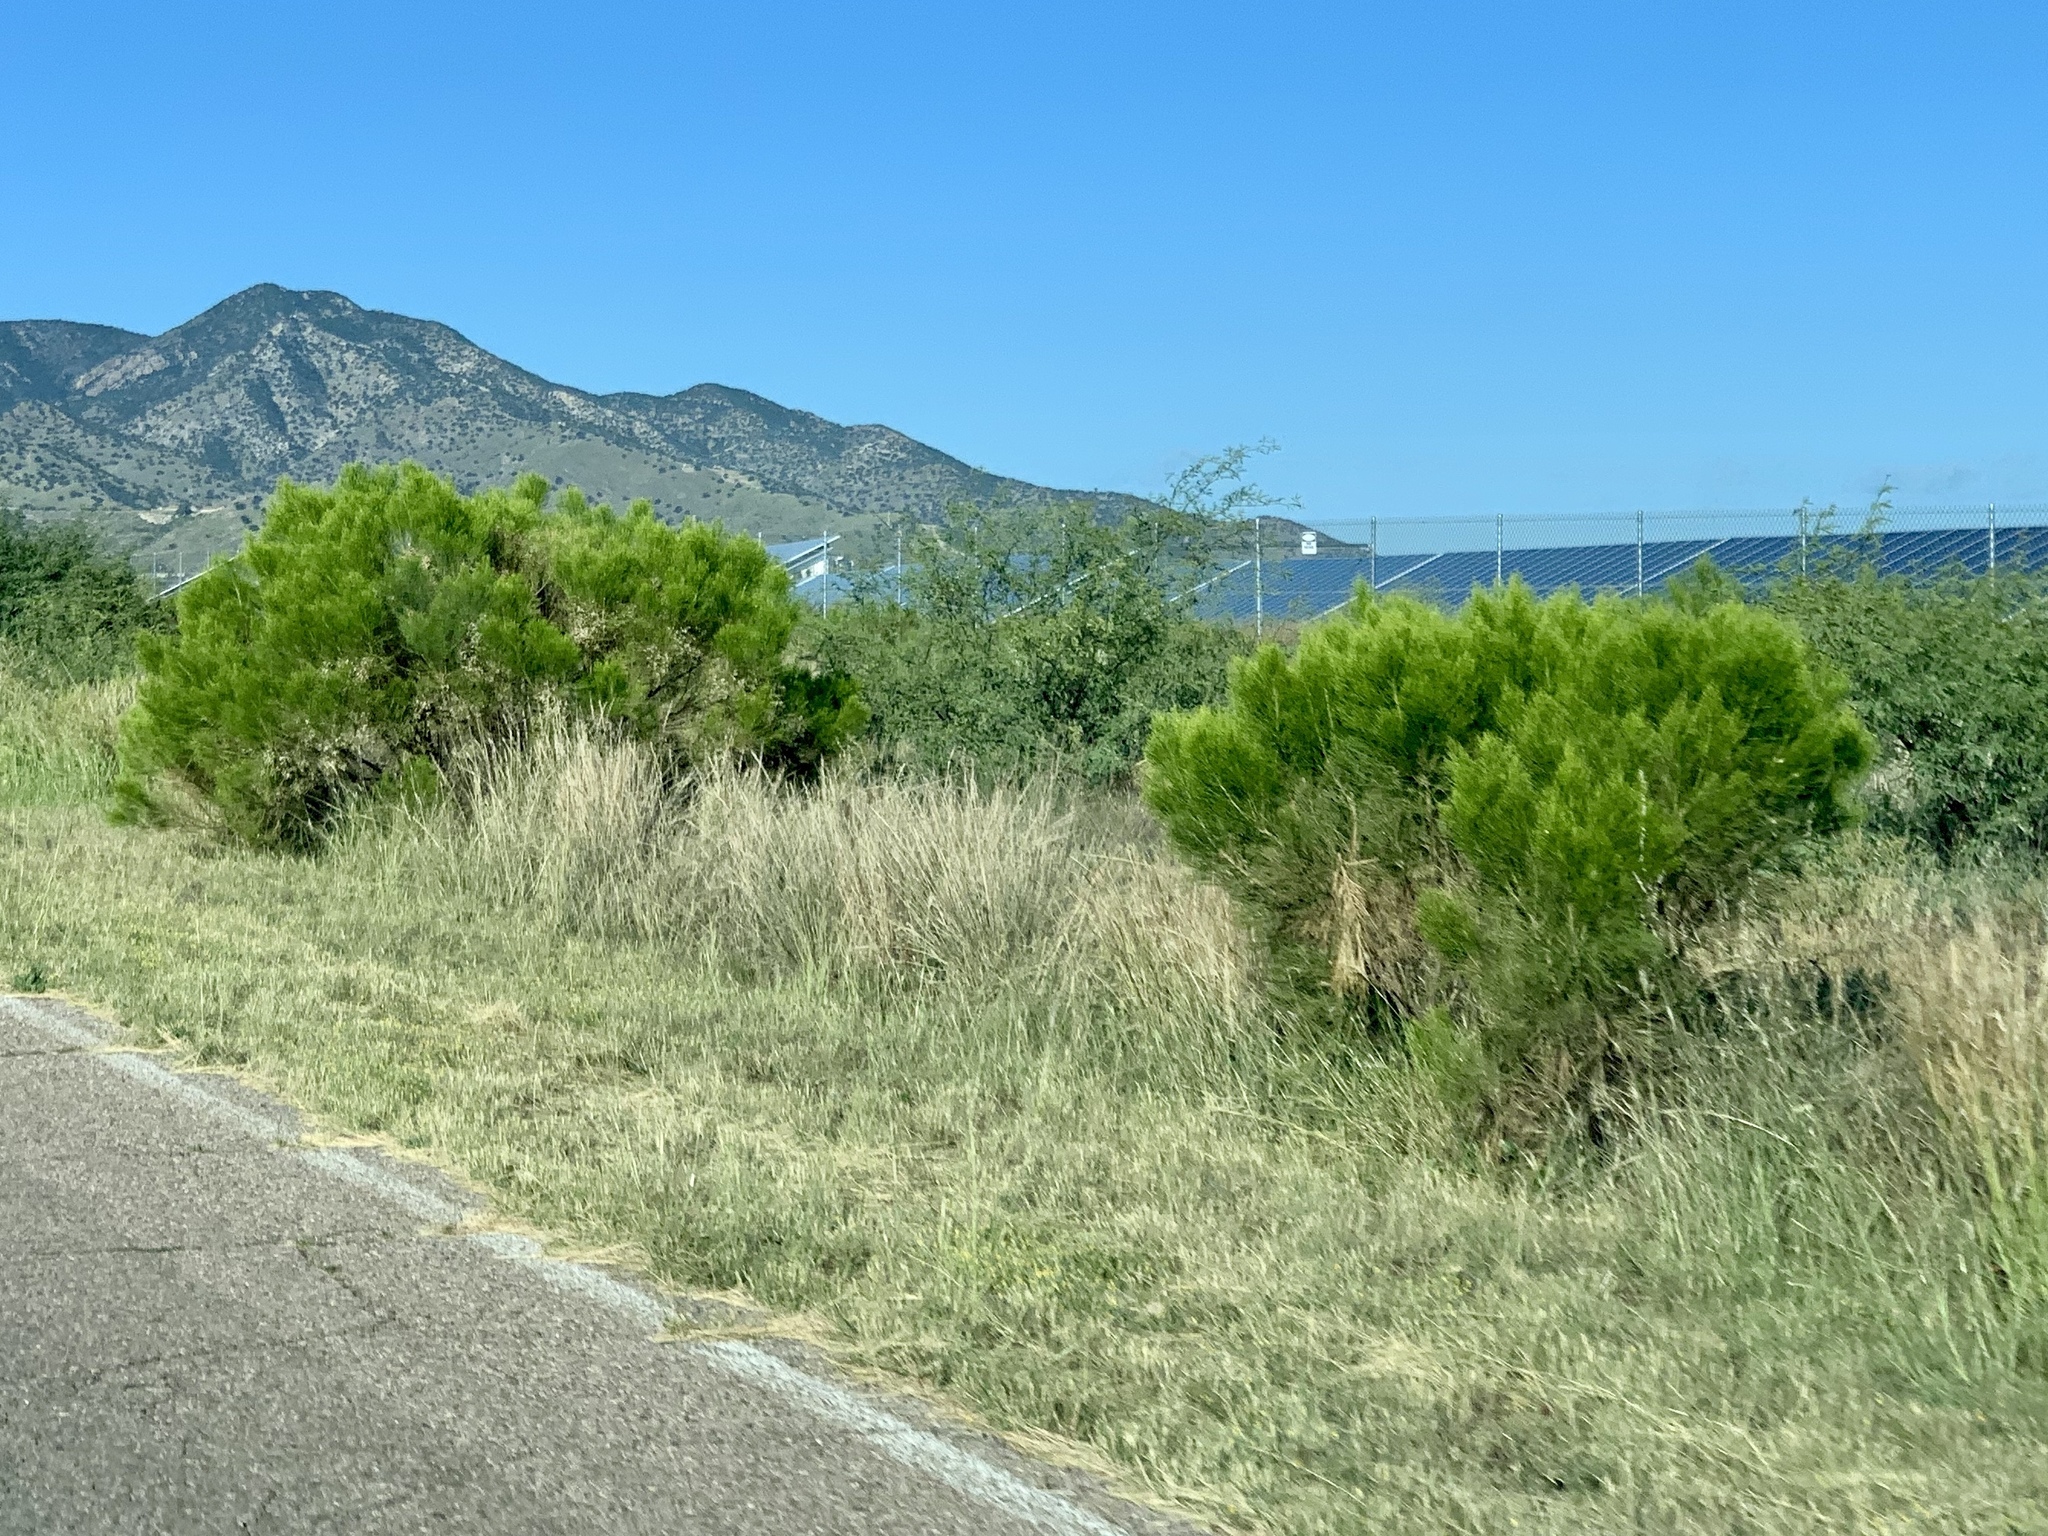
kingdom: Plantae
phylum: Tracheophyta
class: Magnoliopsida
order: Asterales
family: Asteraceae
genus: Baccharis
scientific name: Baccharis sarothroides
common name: Desert-broom
